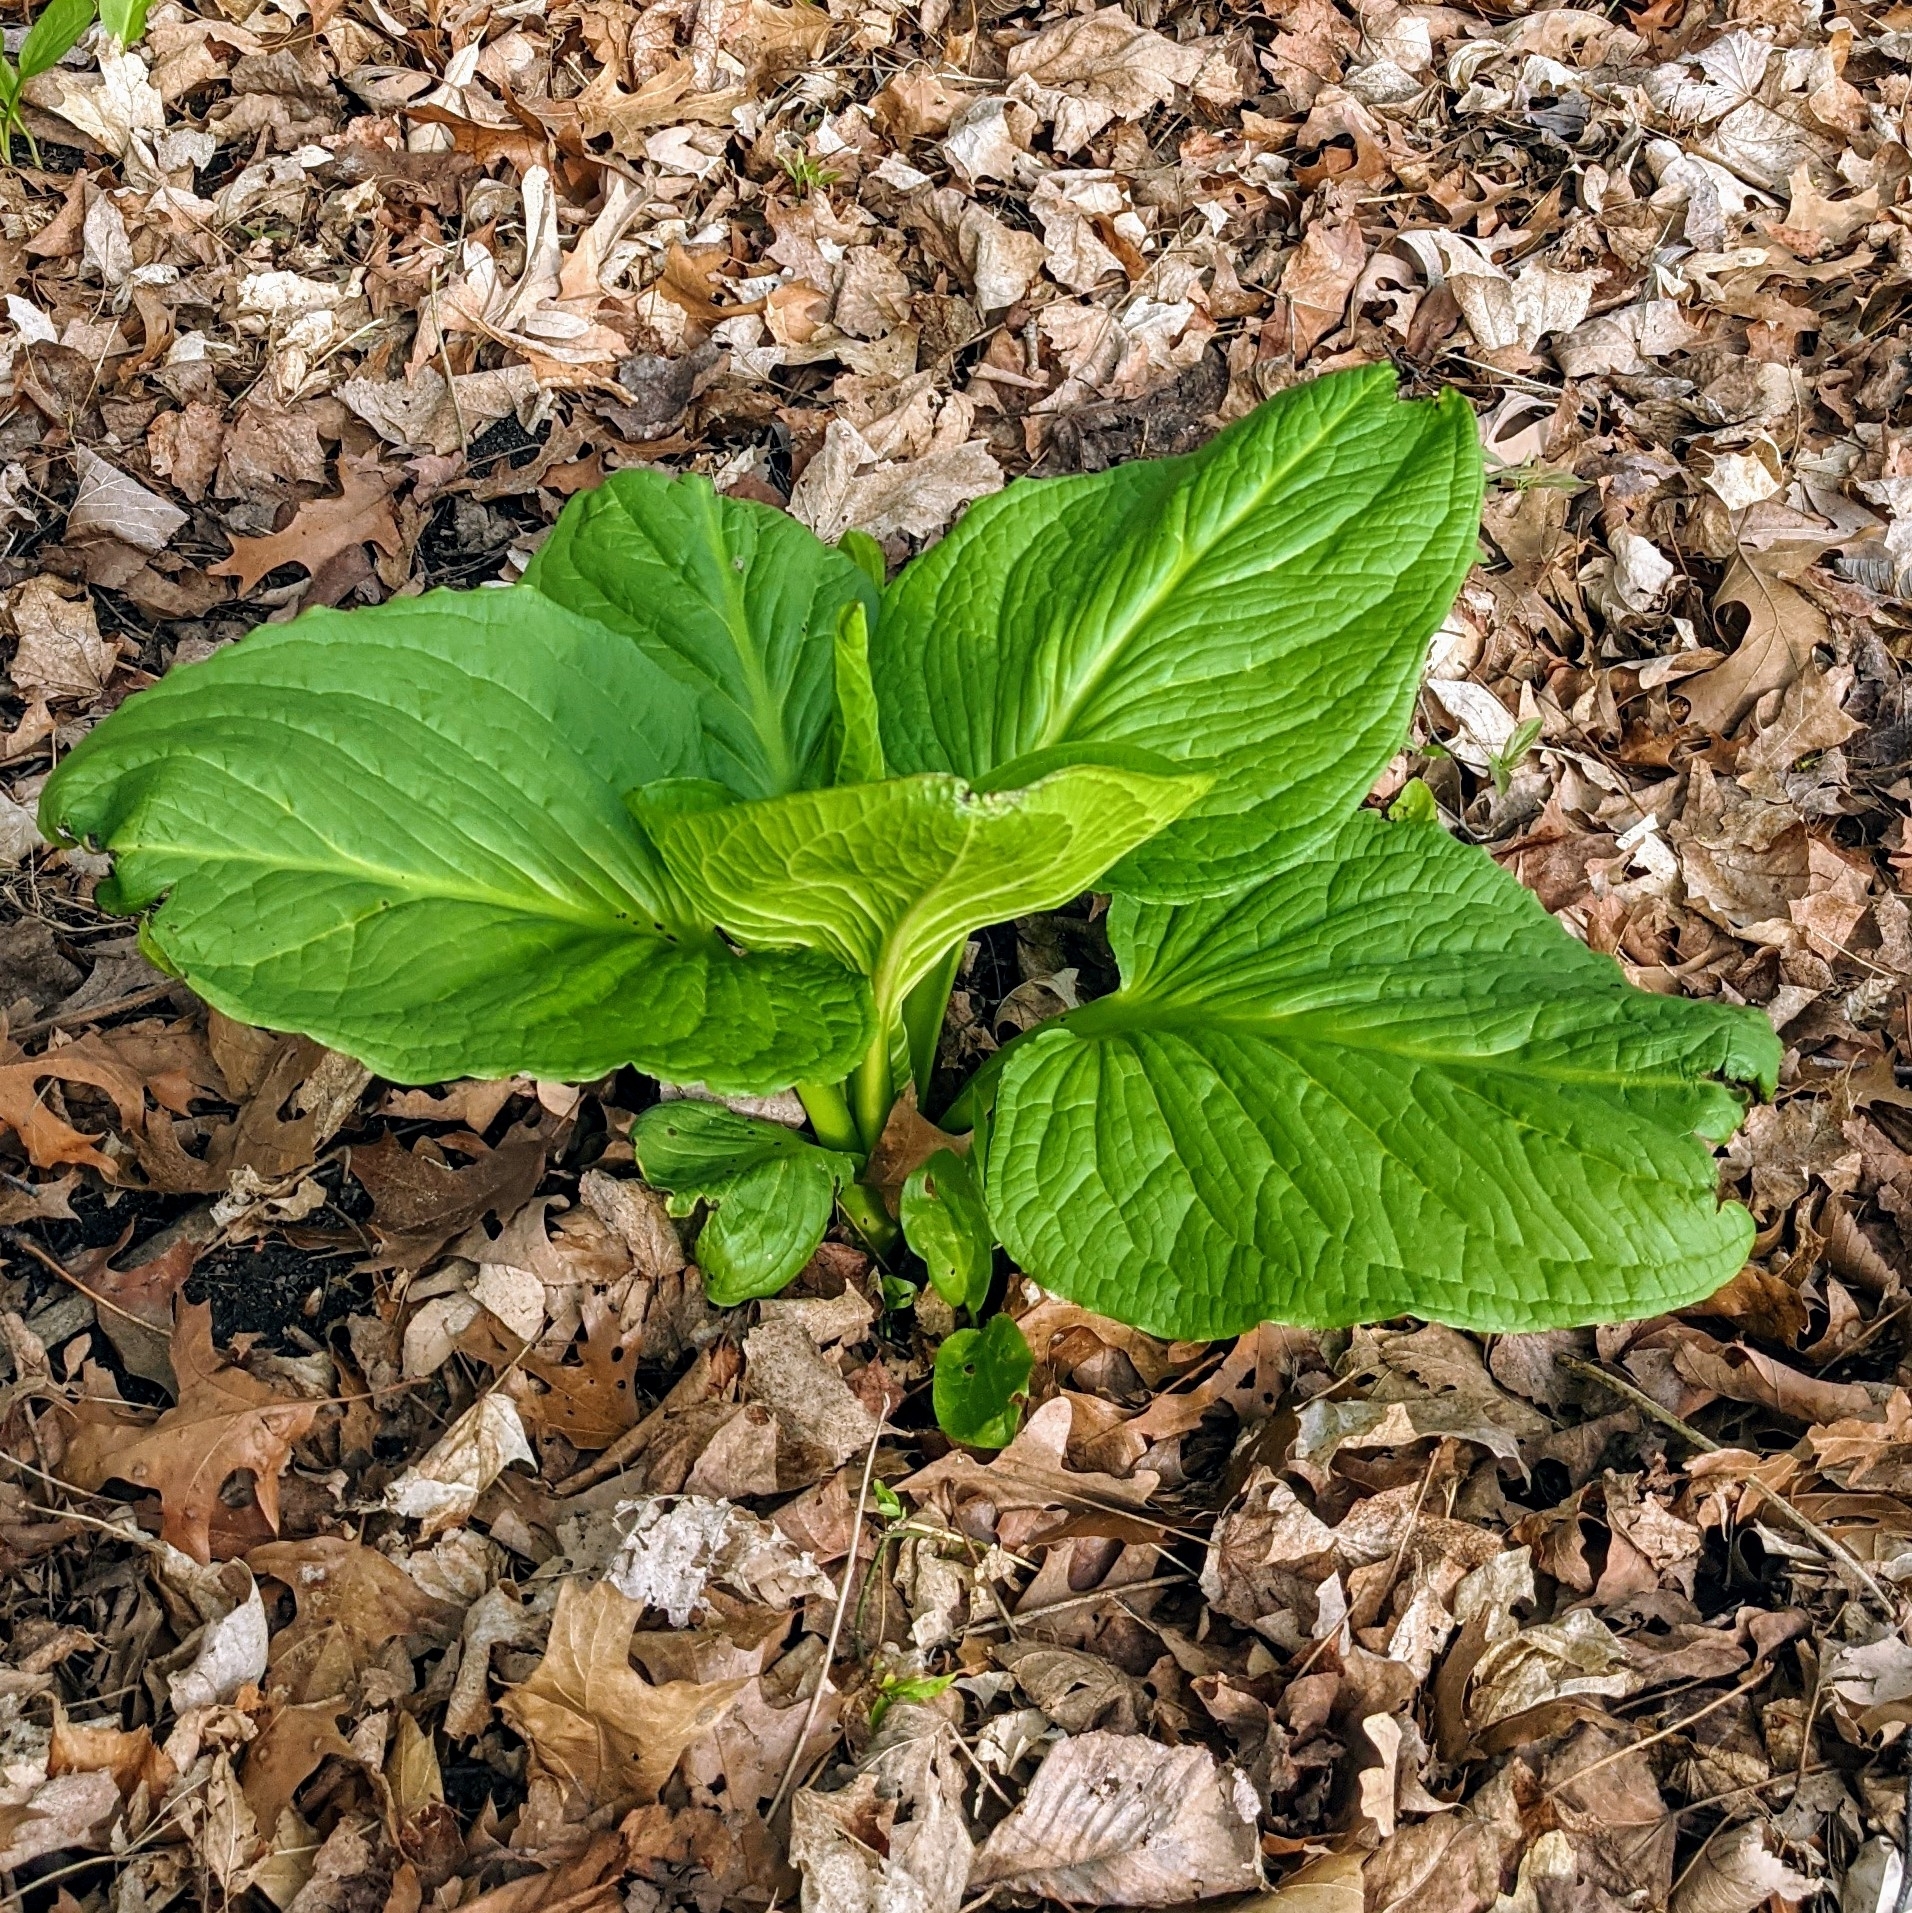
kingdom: Plantae
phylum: Tracheophyta
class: Liliopsida
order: Alismatales
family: Araceae
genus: Symplocarpus
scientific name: Symplocarpus foetidus
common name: Eastern skunk cabbage
